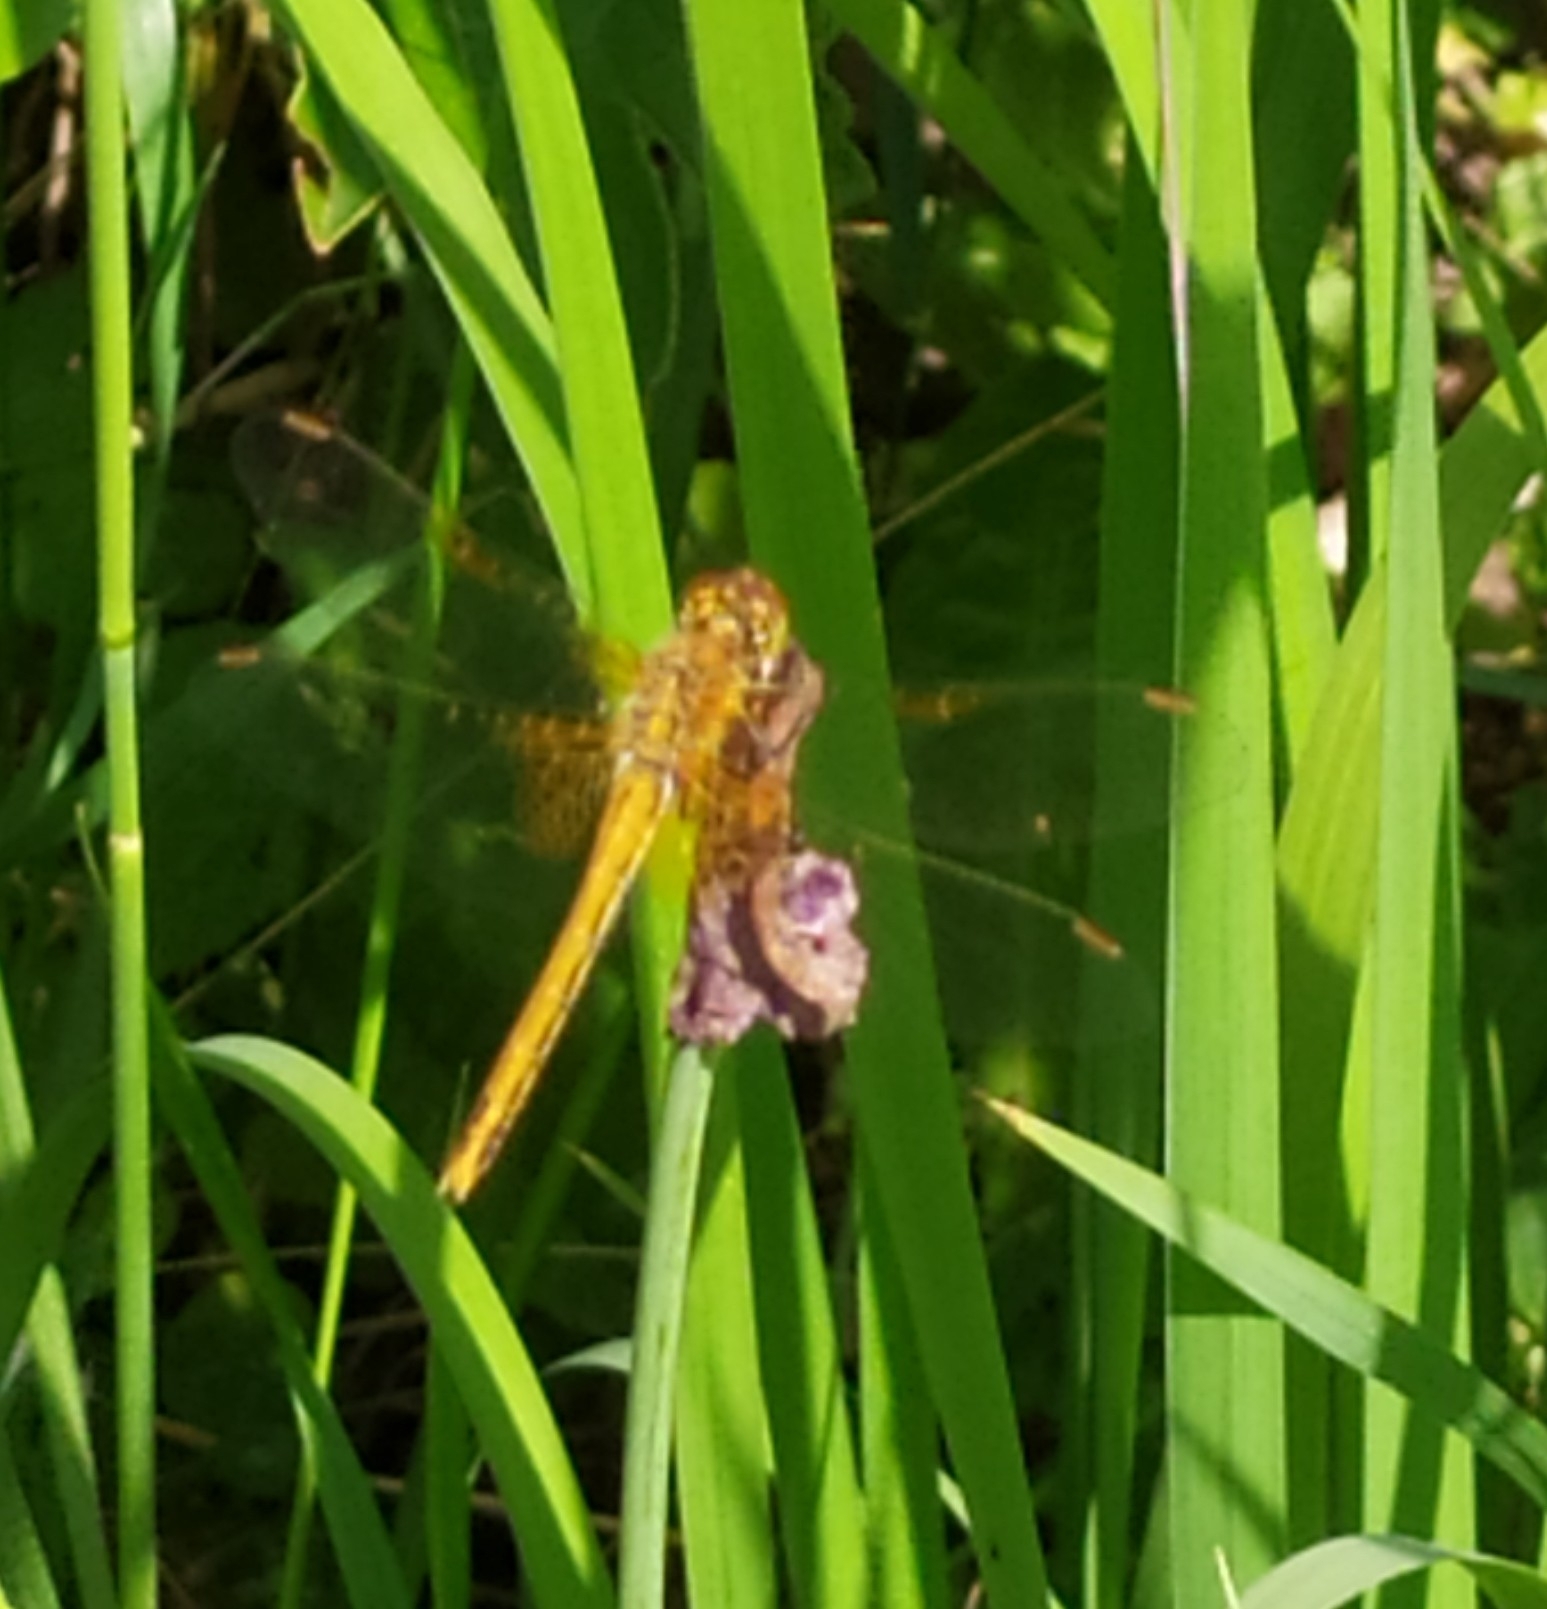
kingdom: Animalia
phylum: Arthropoda
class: Insecta
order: Odonata
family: Libellulidae
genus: Sympetrum
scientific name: Sympetrum flaveolum
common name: Yellow-winged darter
